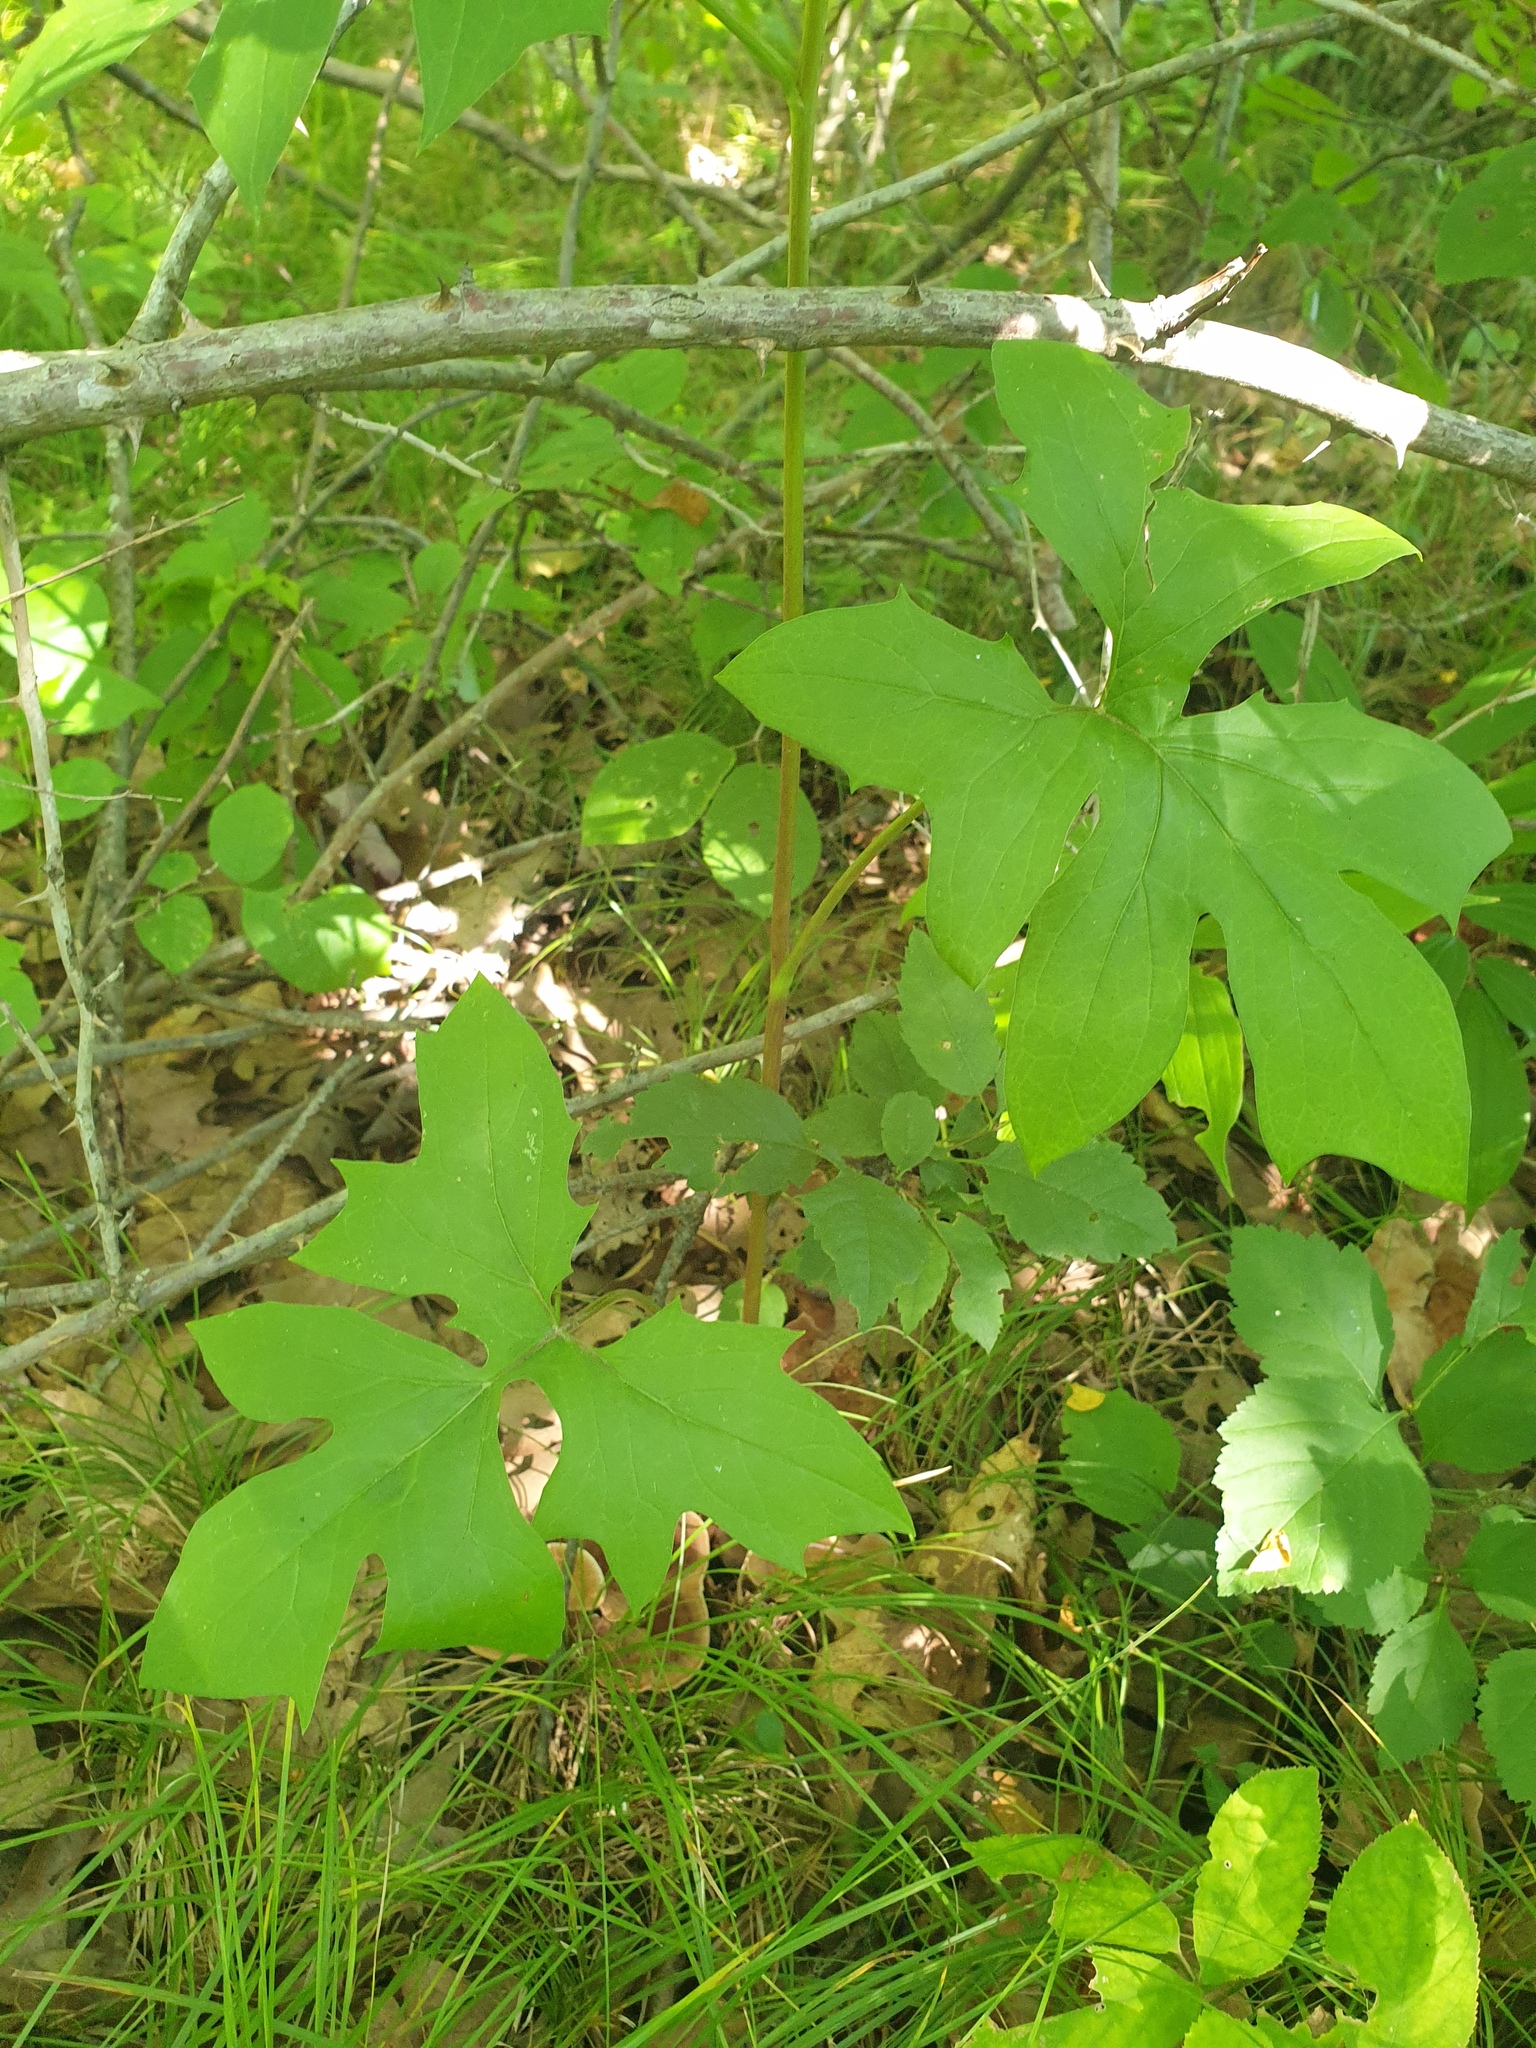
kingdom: Plantae
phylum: Tracheophyta
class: Magnoliopsida
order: Asterales
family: Asteraceae
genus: Nabalus
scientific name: Nabalus albus
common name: White rattlesnakeroot
